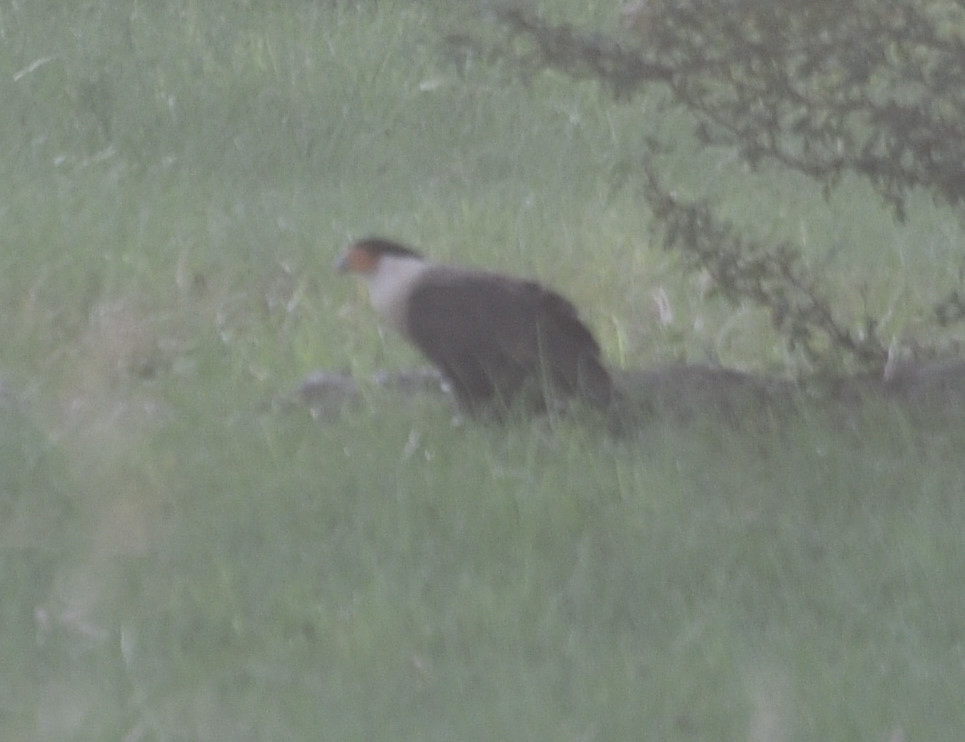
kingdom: Animalia
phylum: Chordata
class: Aves
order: Falconiformes
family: Falconidae
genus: Caracara
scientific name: Caracara plancus
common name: Southern caracara
